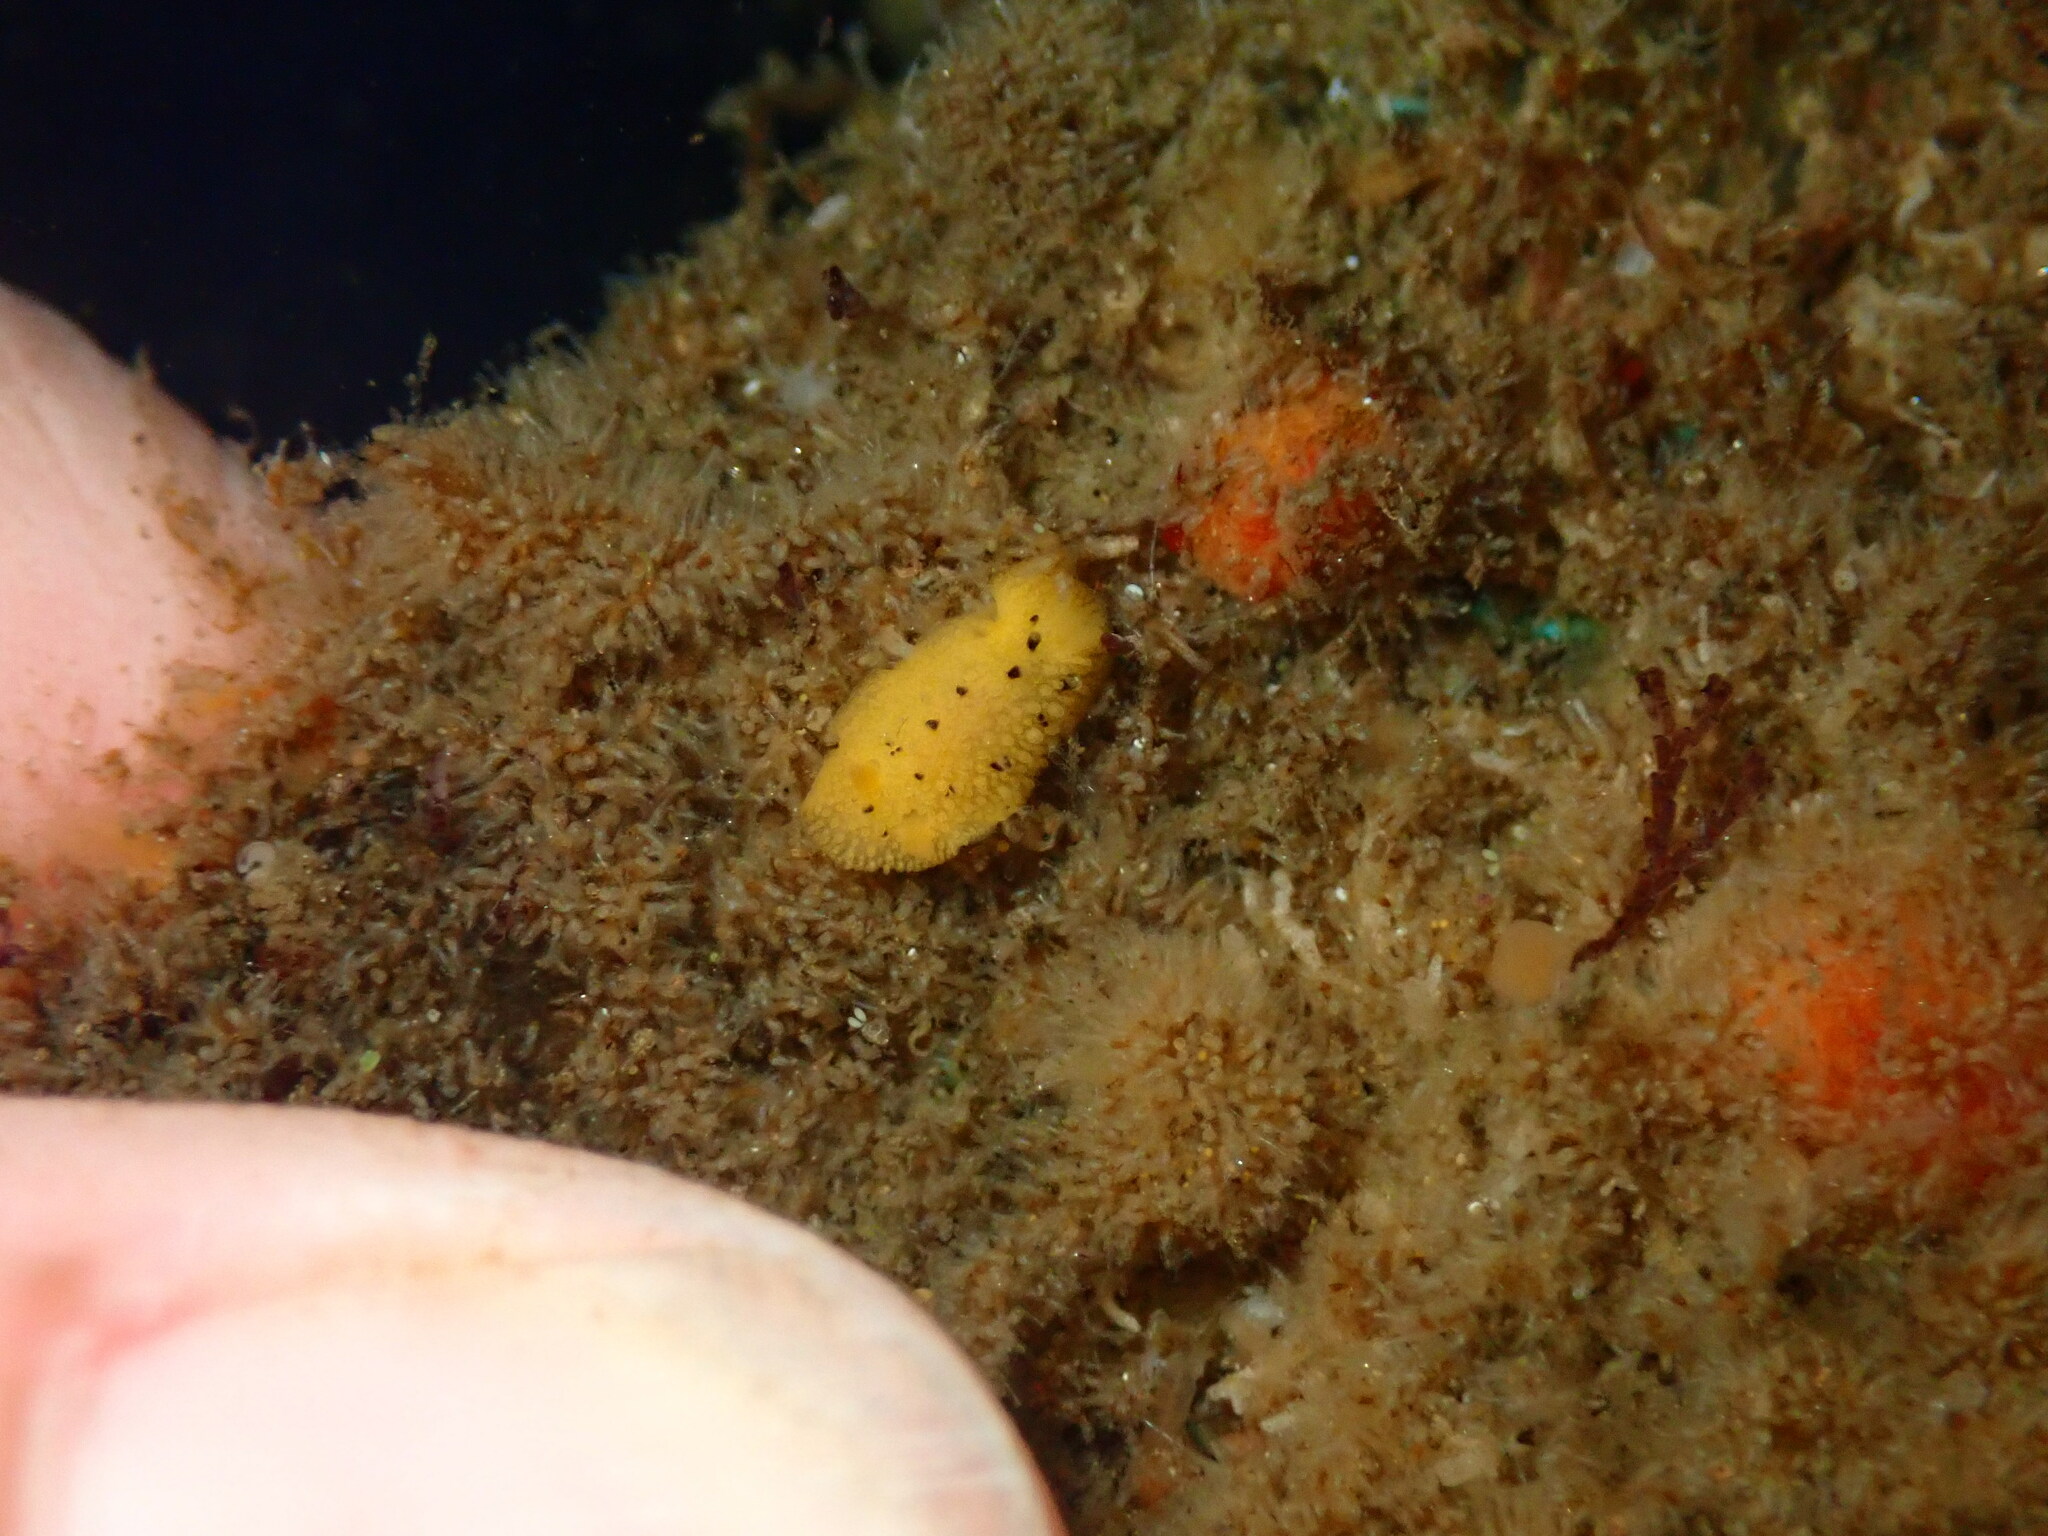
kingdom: Animalia
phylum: Mollusca
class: Gastropoda
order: Nudibranchia
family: Dorididae
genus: Doris
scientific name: Doris montereyensis
